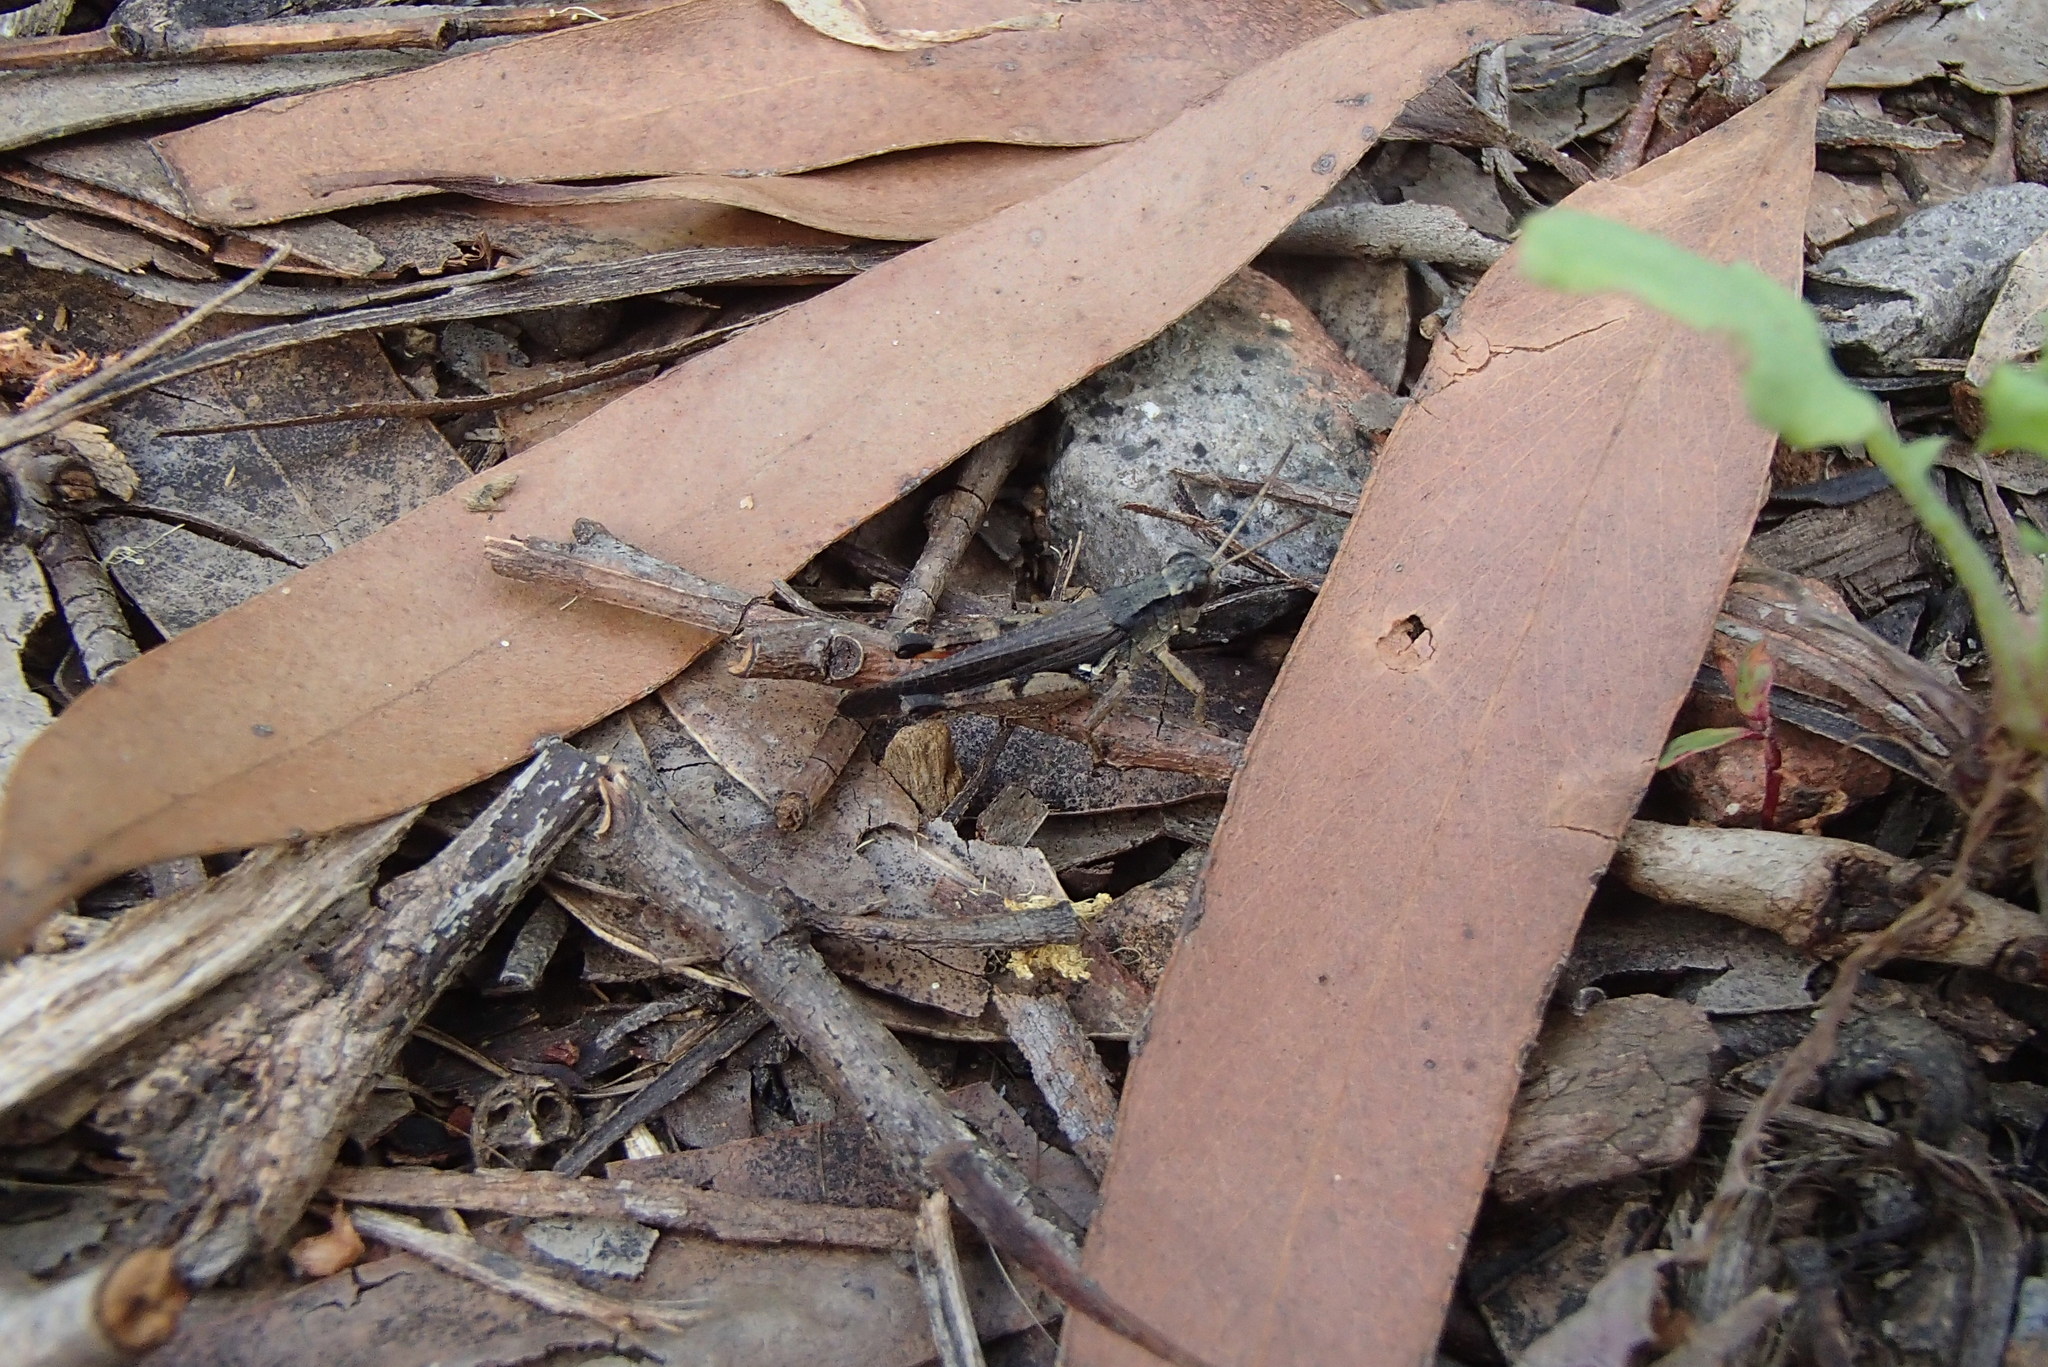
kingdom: Animalia
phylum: Arthropoda
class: Insecta
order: Orthoptera
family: Acrididae
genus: Phaulacridium
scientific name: Phaulacridium vittatum
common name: Wingless grasshopper
